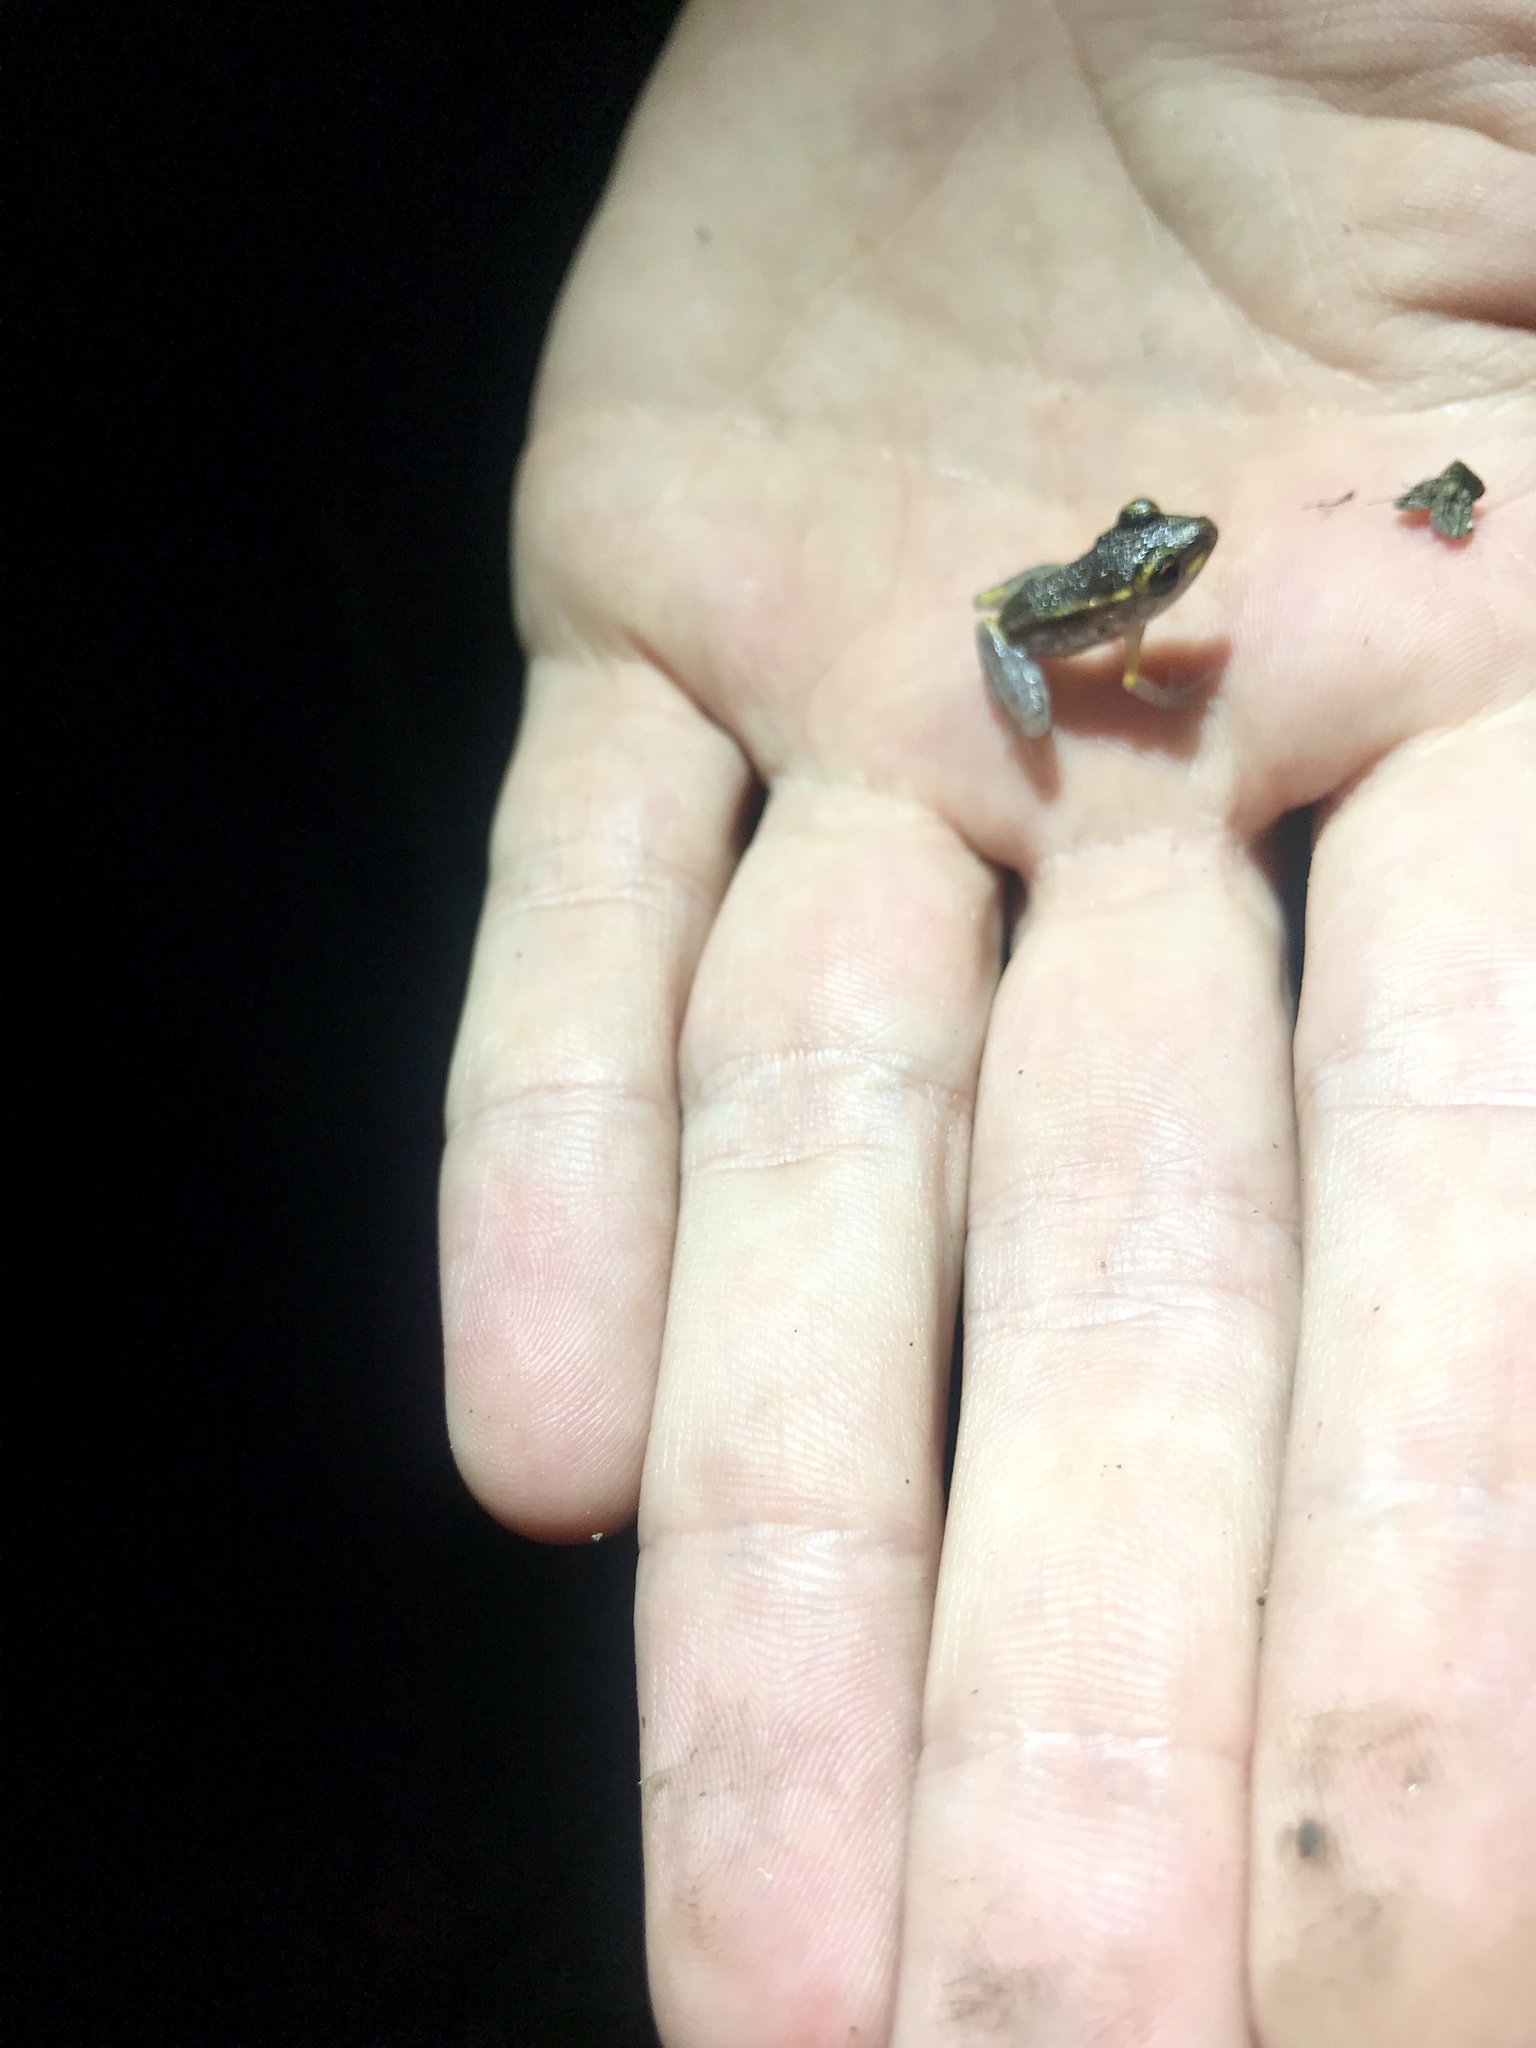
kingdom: Animalia
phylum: Chordata
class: Amphibia
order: Anura
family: Craugastoridae
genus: Pristimantis
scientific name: Pristimantis gaigei
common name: Fort randolph robber frog
